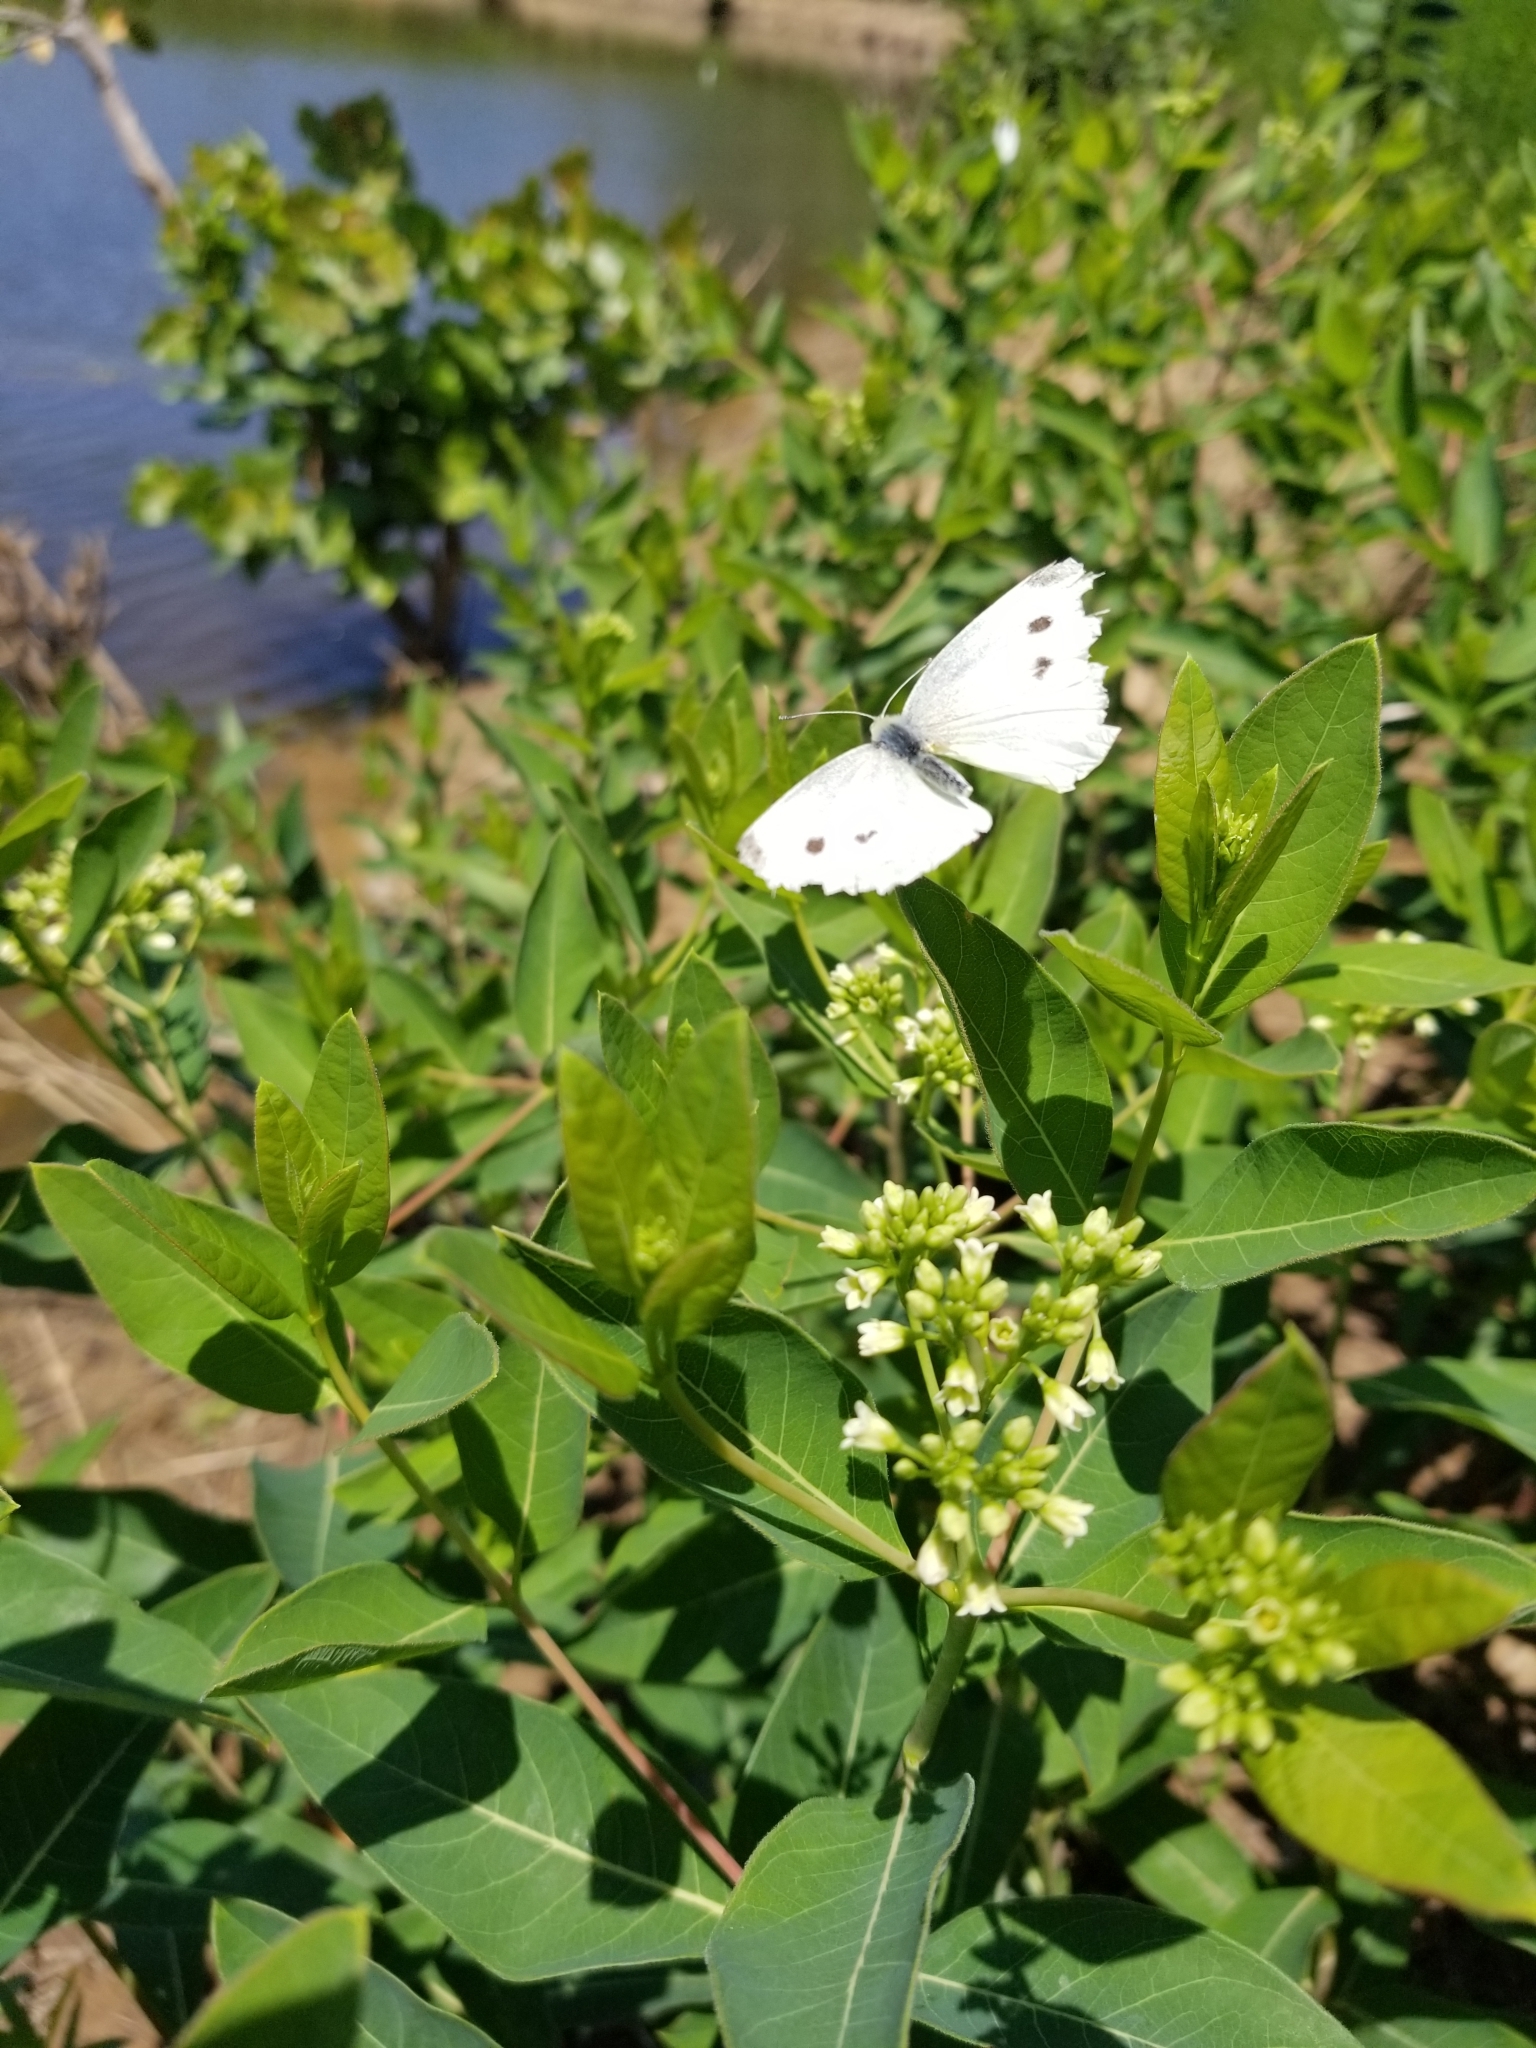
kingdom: Animalia
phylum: Arthropoda
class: Insecta
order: Lepidoptera
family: Pieridae
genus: Pieris
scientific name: Pieris rapae
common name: Small white
